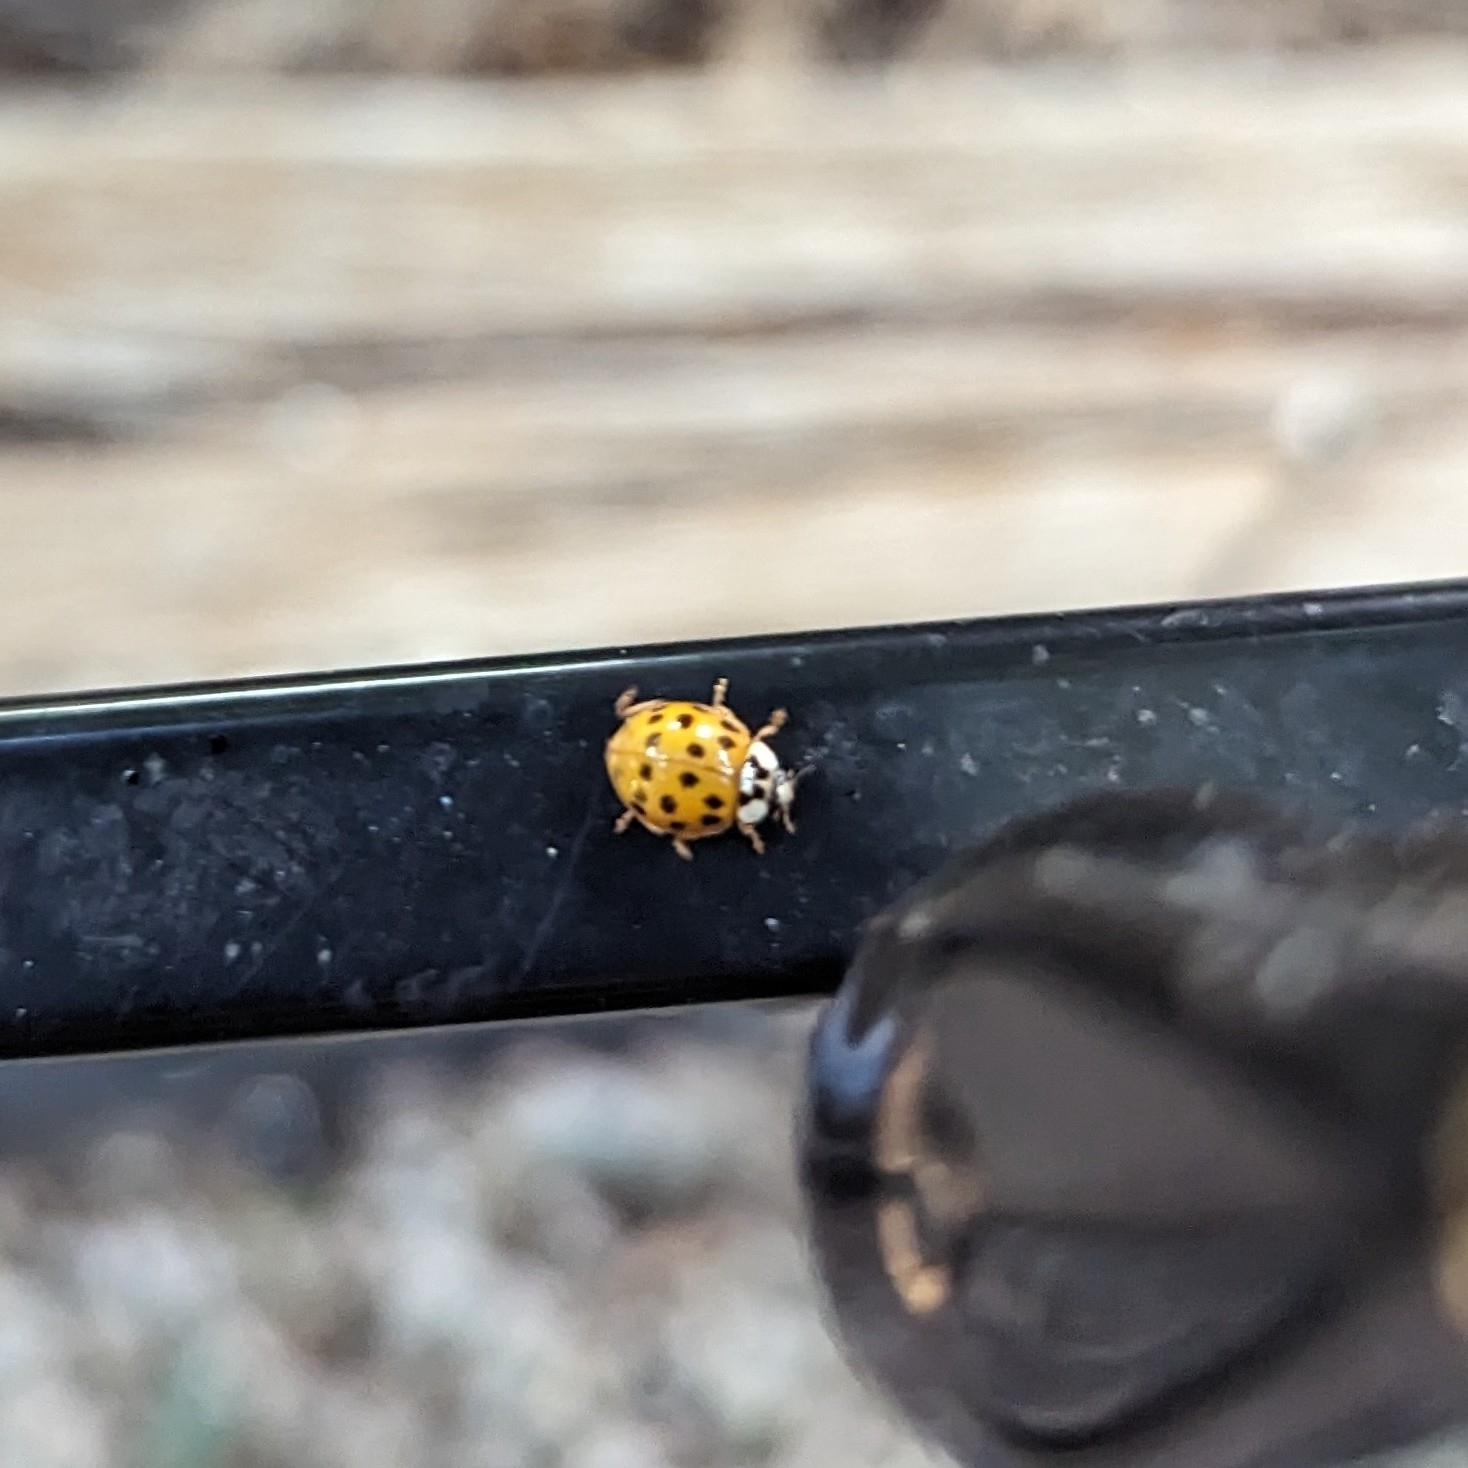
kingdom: Animalia
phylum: Arthropoda
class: Insecta
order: Coleoptera
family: Coccinellidae
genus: Harmonia
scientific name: Harmonia axyridis
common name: Harlequin ladybird
